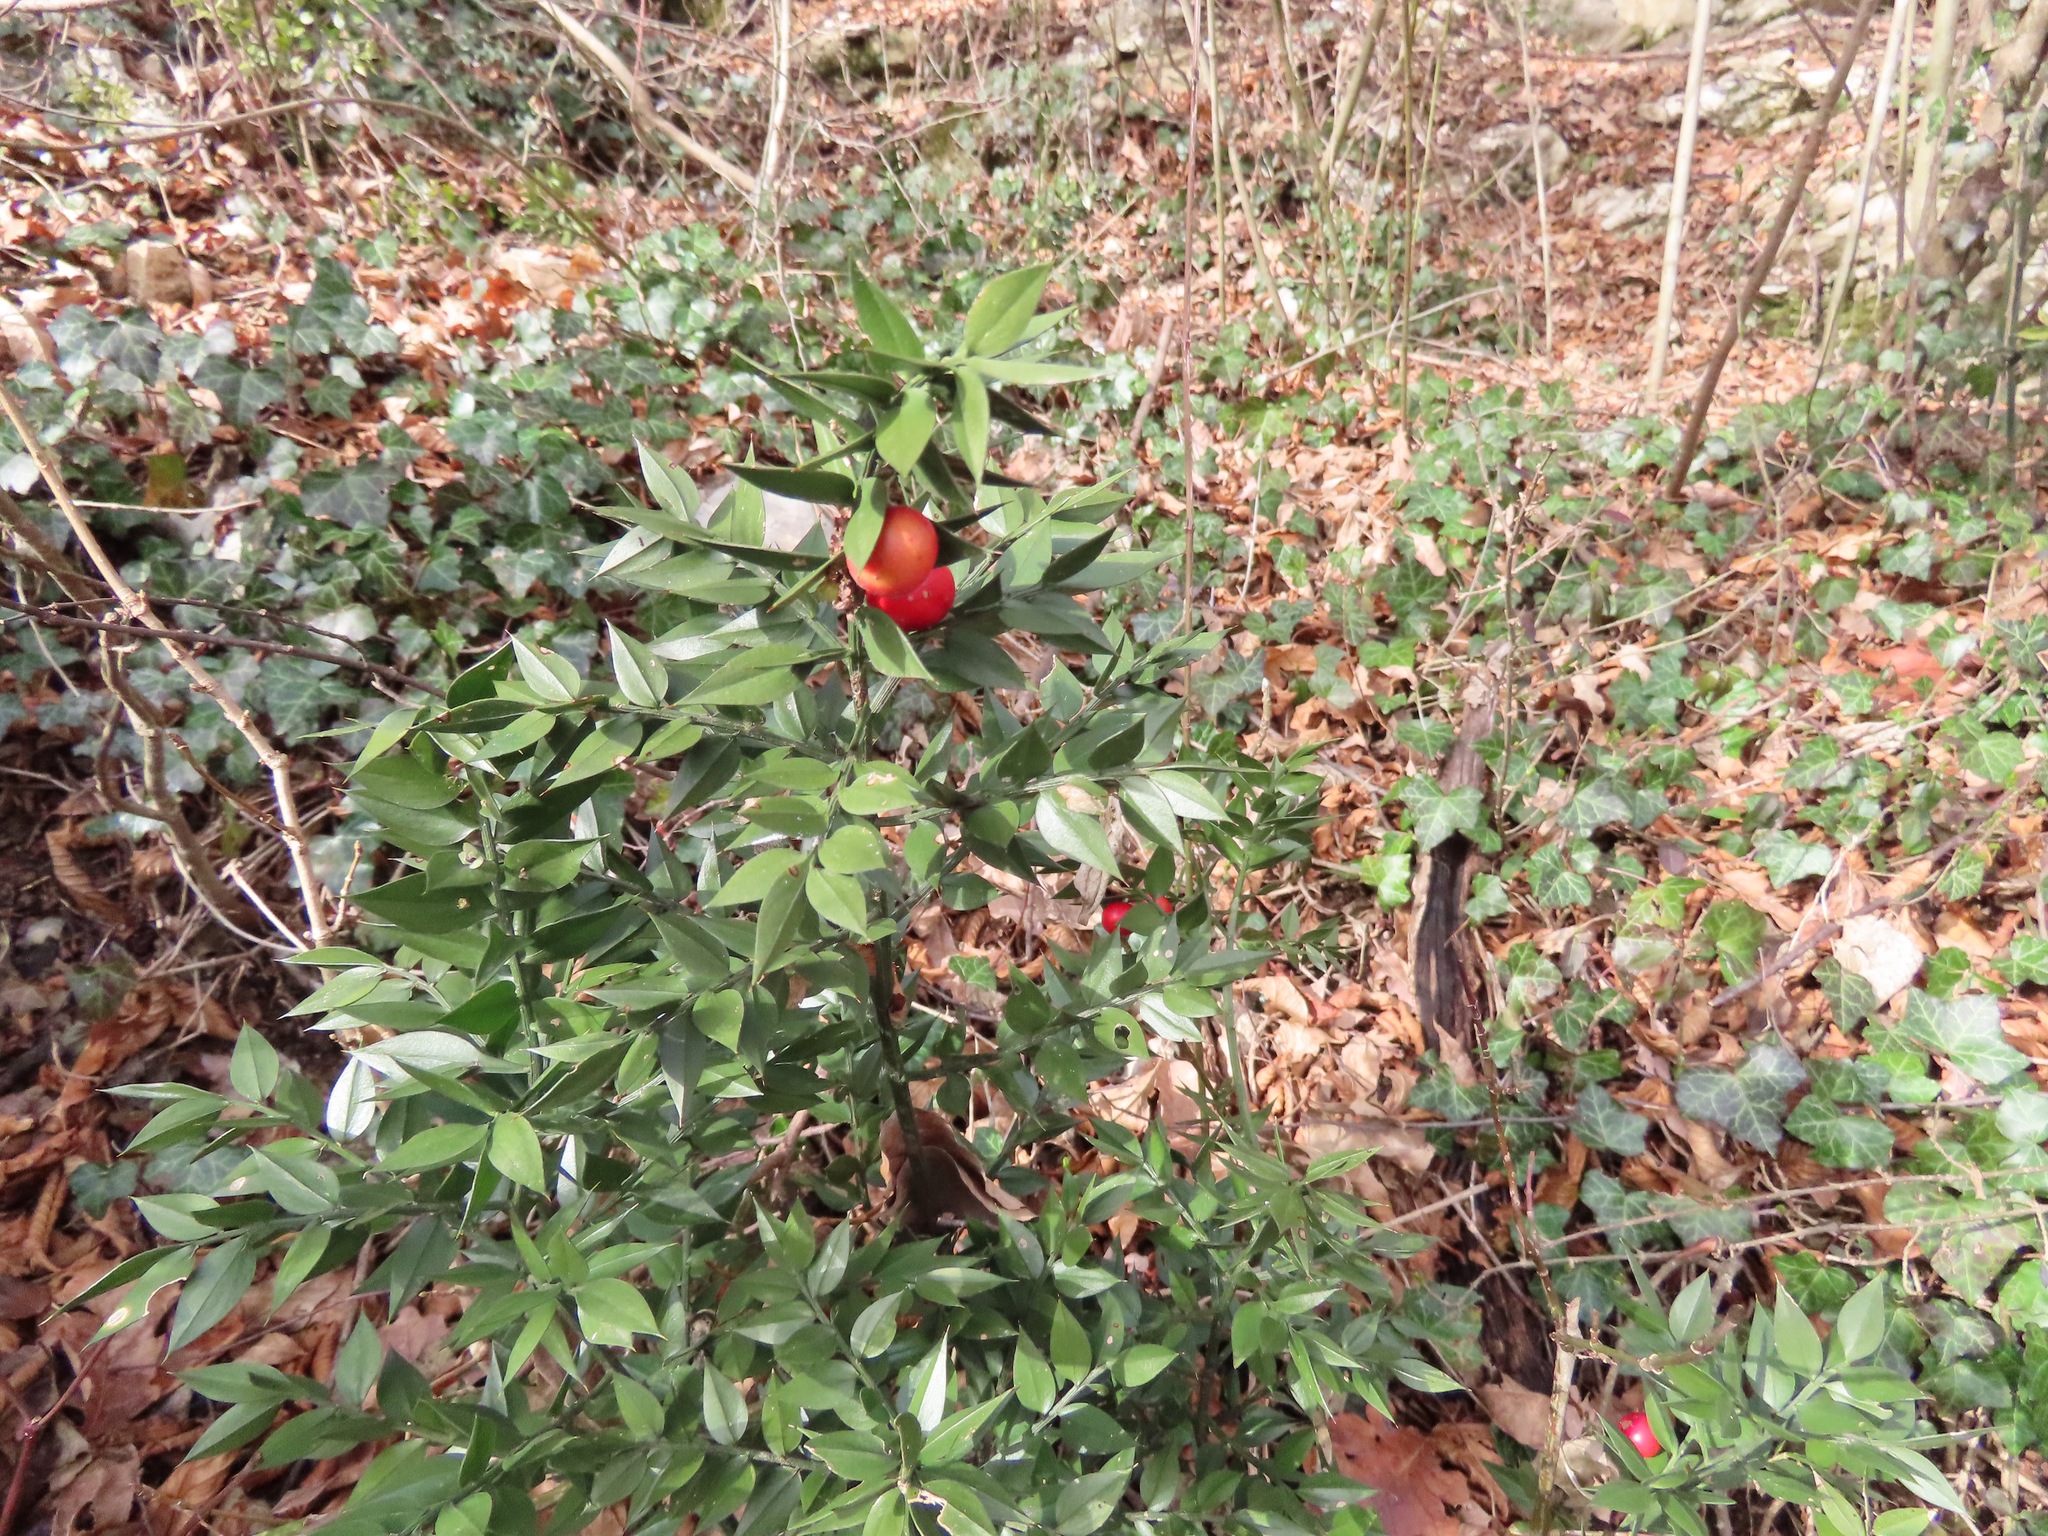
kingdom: Plantae
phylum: Tracheophyta
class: Liliopsida
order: Asparagales
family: Asparagaceae
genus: Ruscus
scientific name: Ruscus aculeatus
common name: Butcher's-broom
